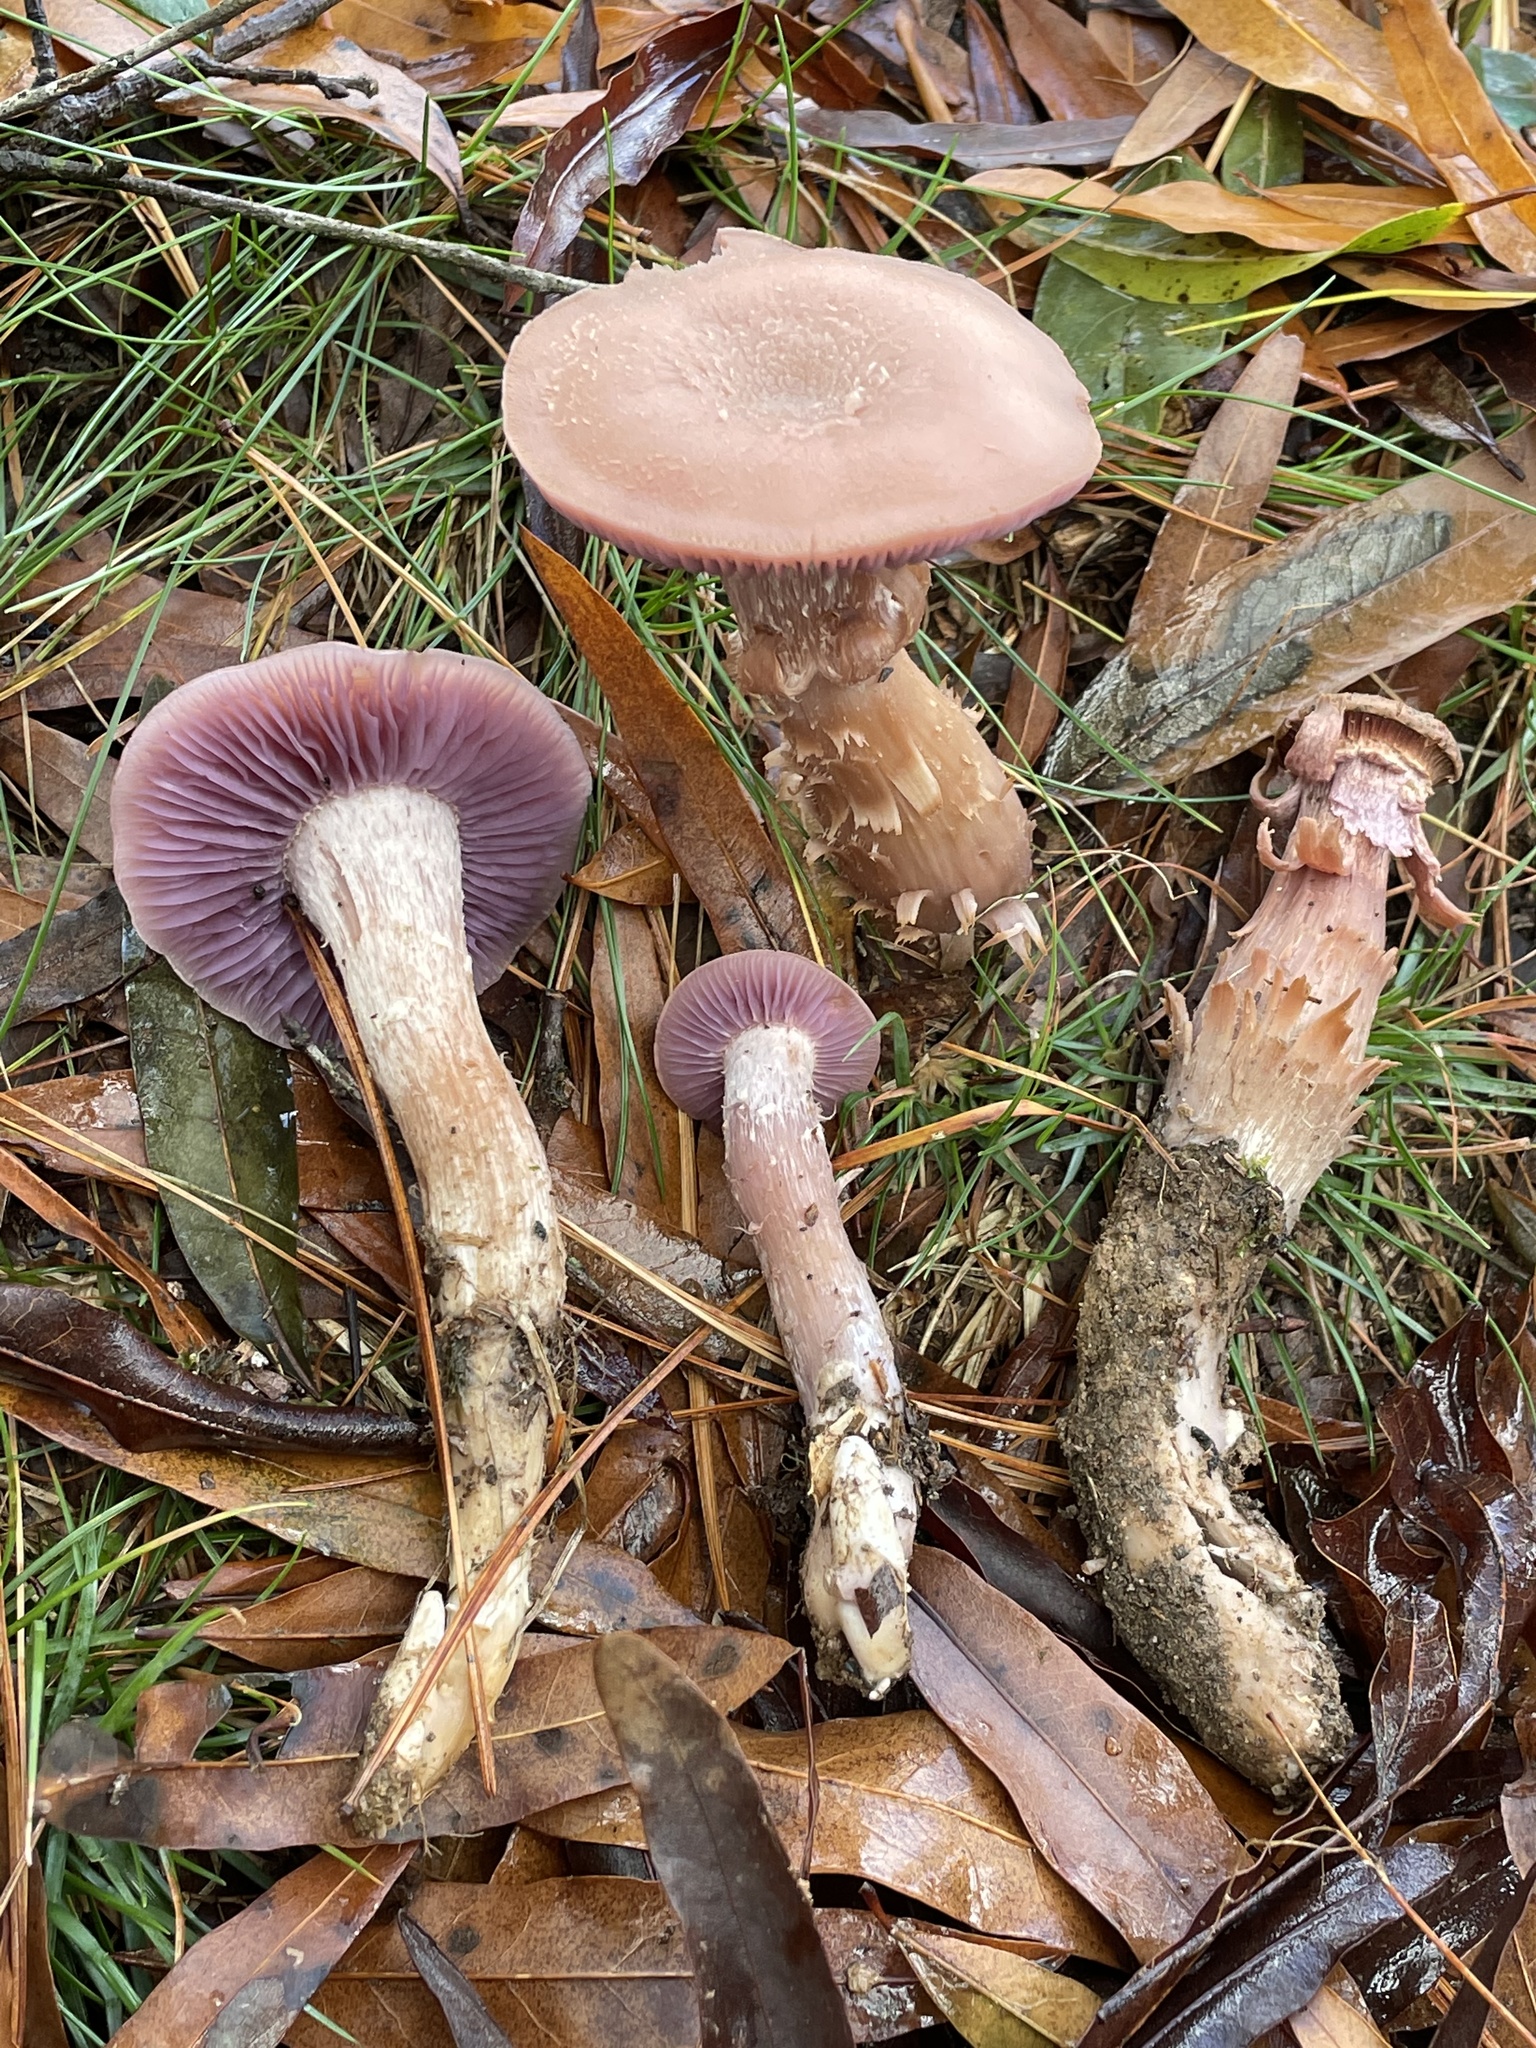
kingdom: Fungi
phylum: Basidiomycota
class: Agaricomycetes
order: Agaricales
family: Hydnangiaceae
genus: Laccaria
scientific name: Laccaria ochropurpurea
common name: Purple laccaria
